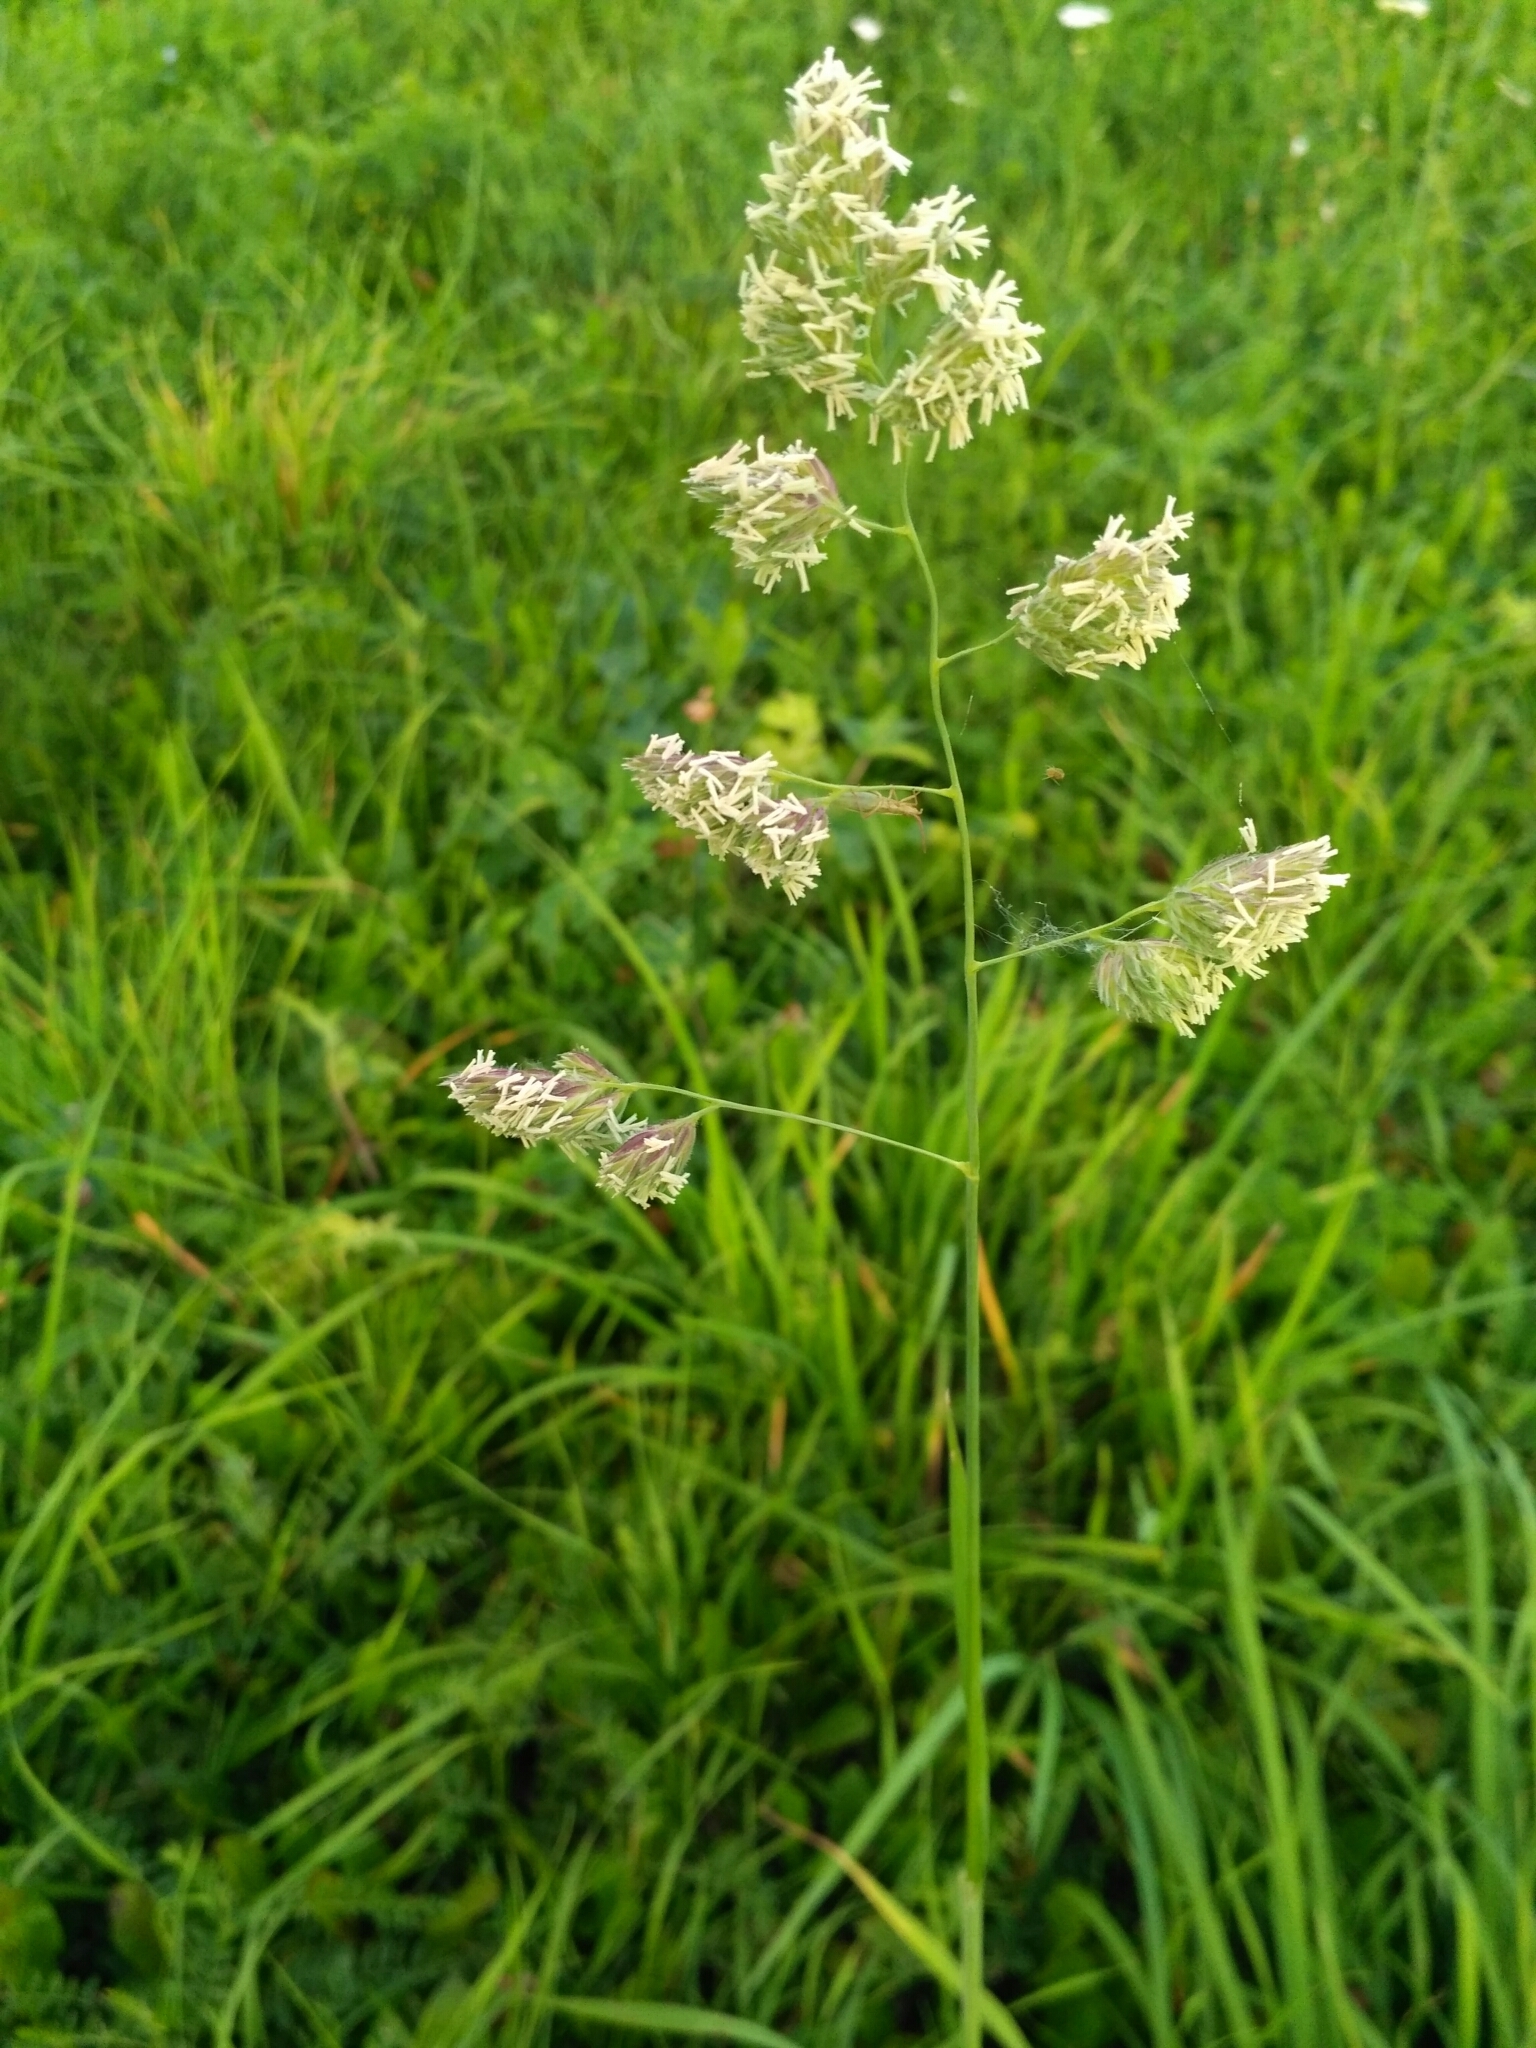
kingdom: Plantae
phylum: Tracheophyta
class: Liliopsida
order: Poales
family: Poaceae
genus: Dactylis
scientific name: Dactylis glomerata
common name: Orchardgrass
